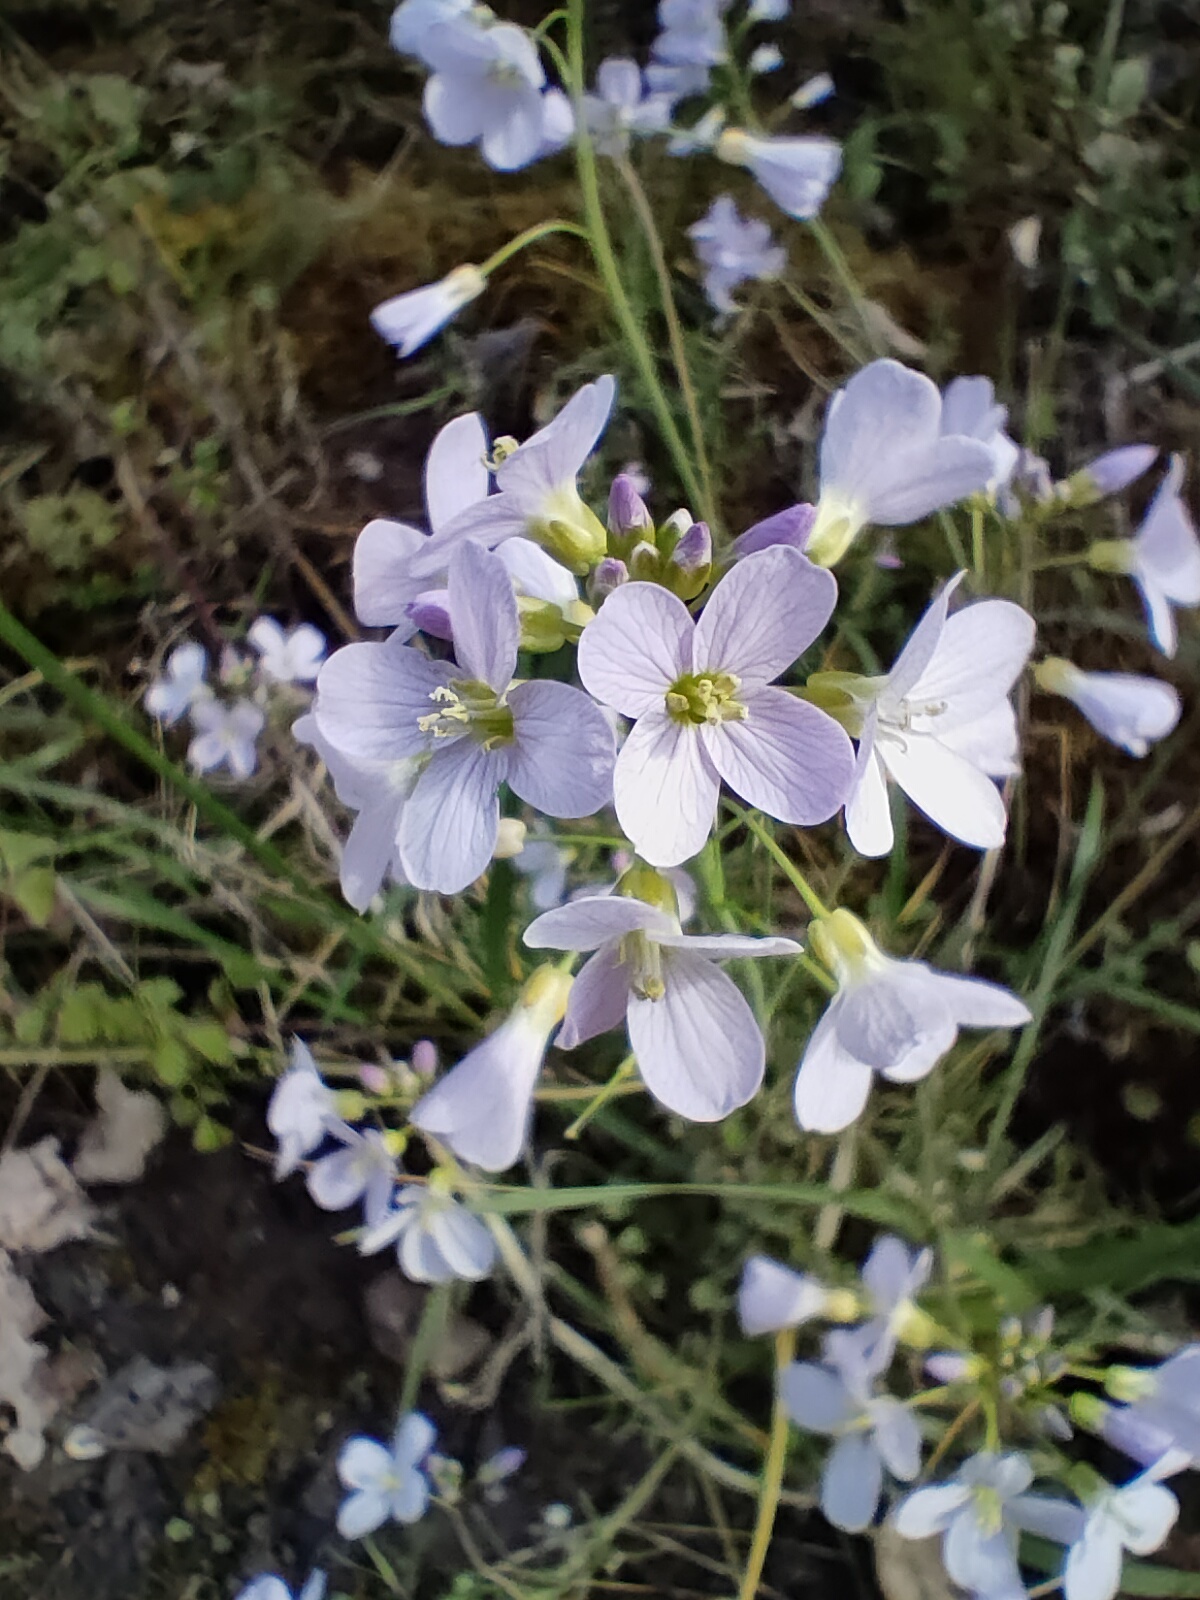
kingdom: Plantae
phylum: Tracheophyta
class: Magnoliopsida
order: Brassicales
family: Brassicaceae
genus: Cardamine
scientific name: Cardamine pratensis
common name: Cuckoo flower
